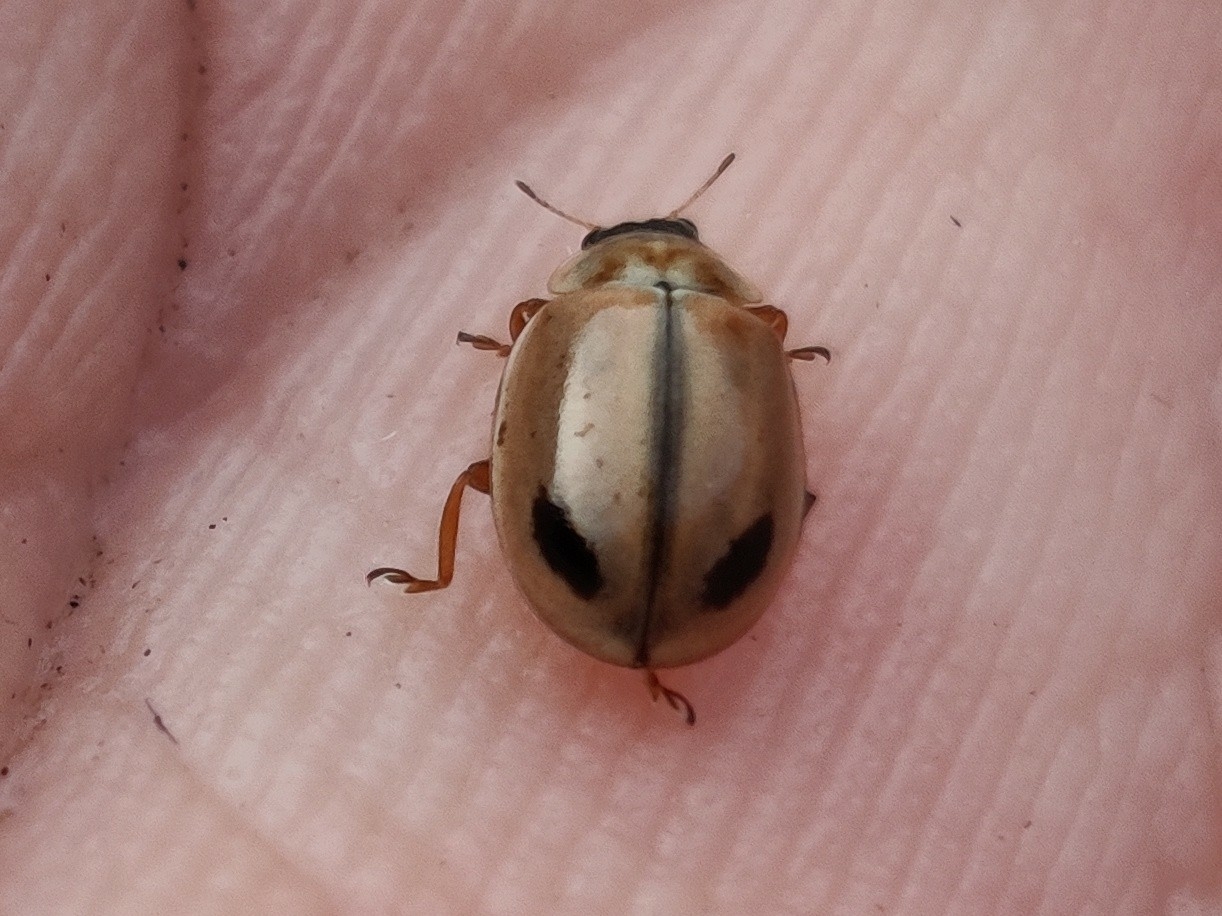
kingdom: Animalia
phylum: Arthropoda
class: Insecta
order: Coleoptera
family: Coccinellidae
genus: Aphidecta
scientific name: Aphidecta obliterata
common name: Larch ladybird
